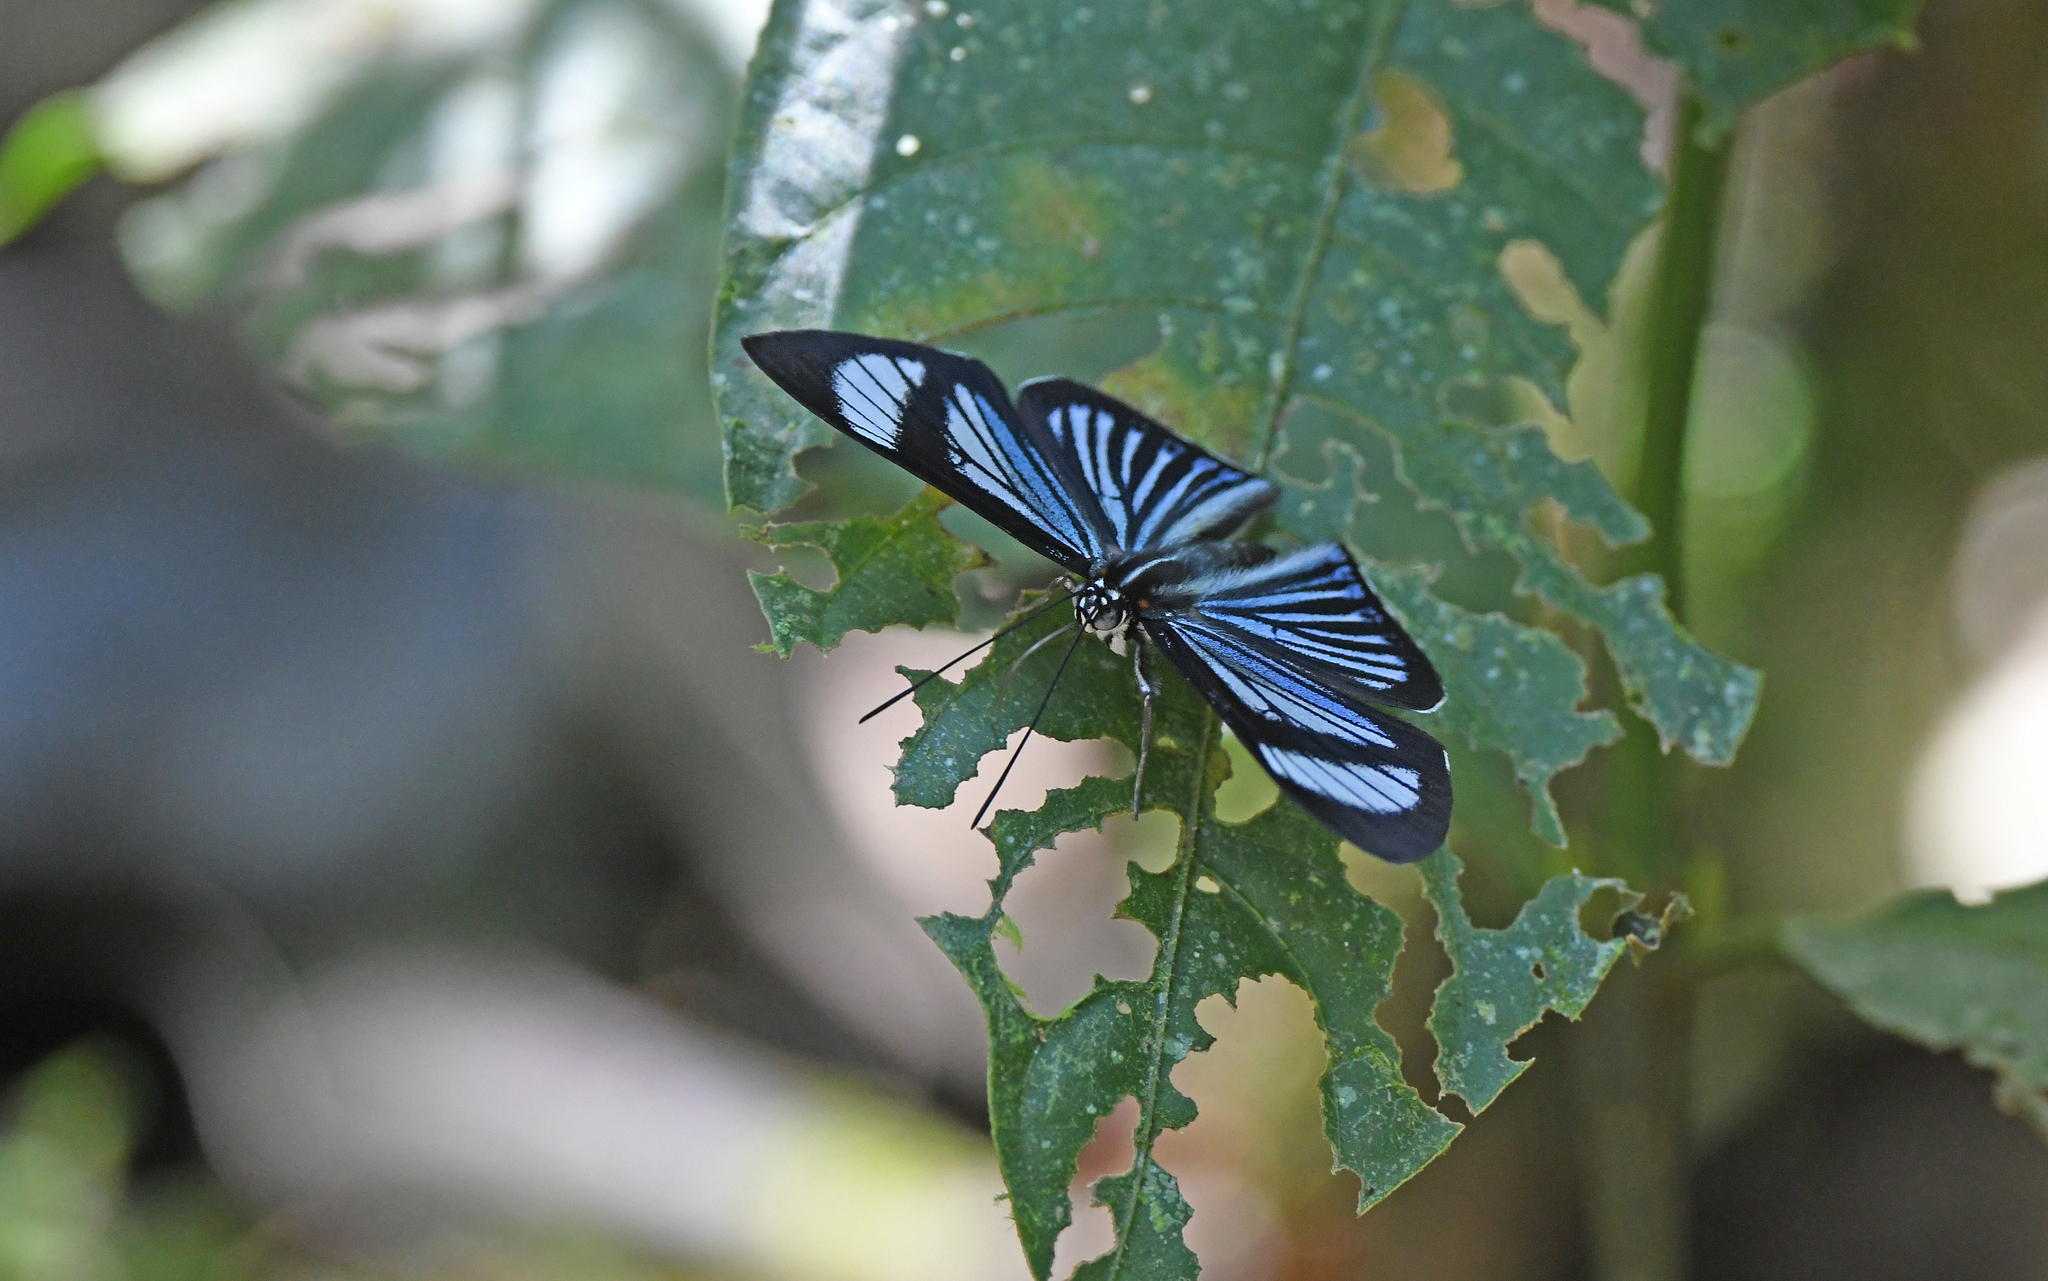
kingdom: Animalia
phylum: Arthropoda
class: Insecta
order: Lepidoptera
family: Riodinidae
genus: Uraneis
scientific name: Uraneis hyalina
